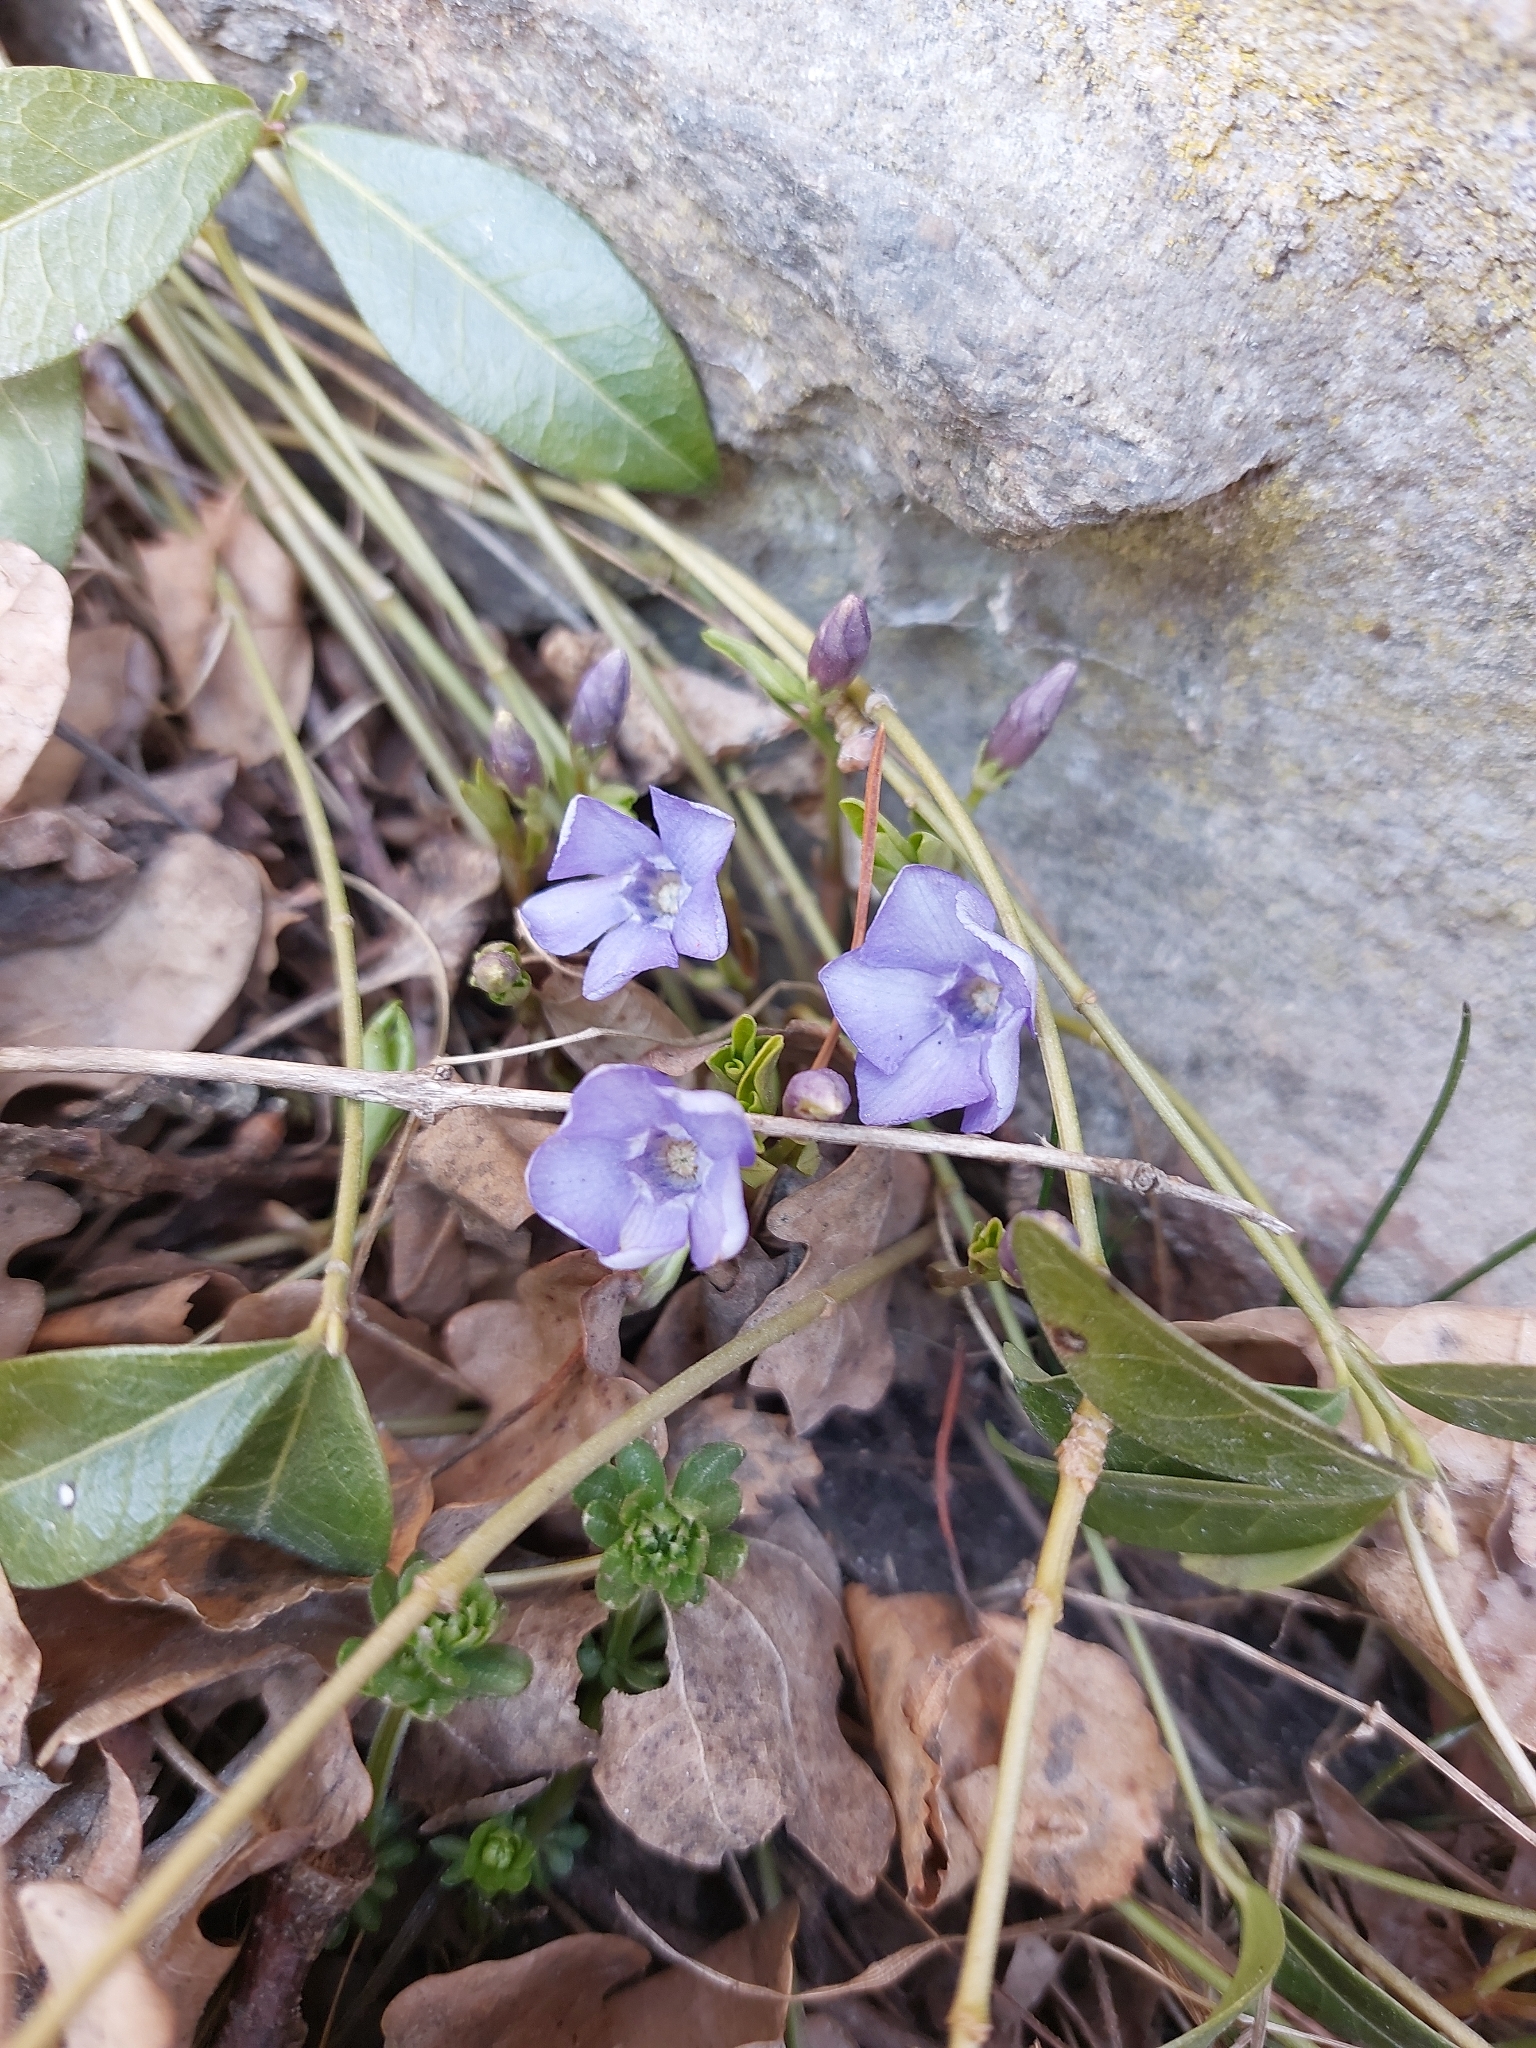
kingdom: Plantae
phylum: Tracheophyta
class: Magnoliopsida
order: Gentianales
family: Apocynaceae
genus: Vinca
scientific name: Vinca minor
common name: Lesser periwinkle
